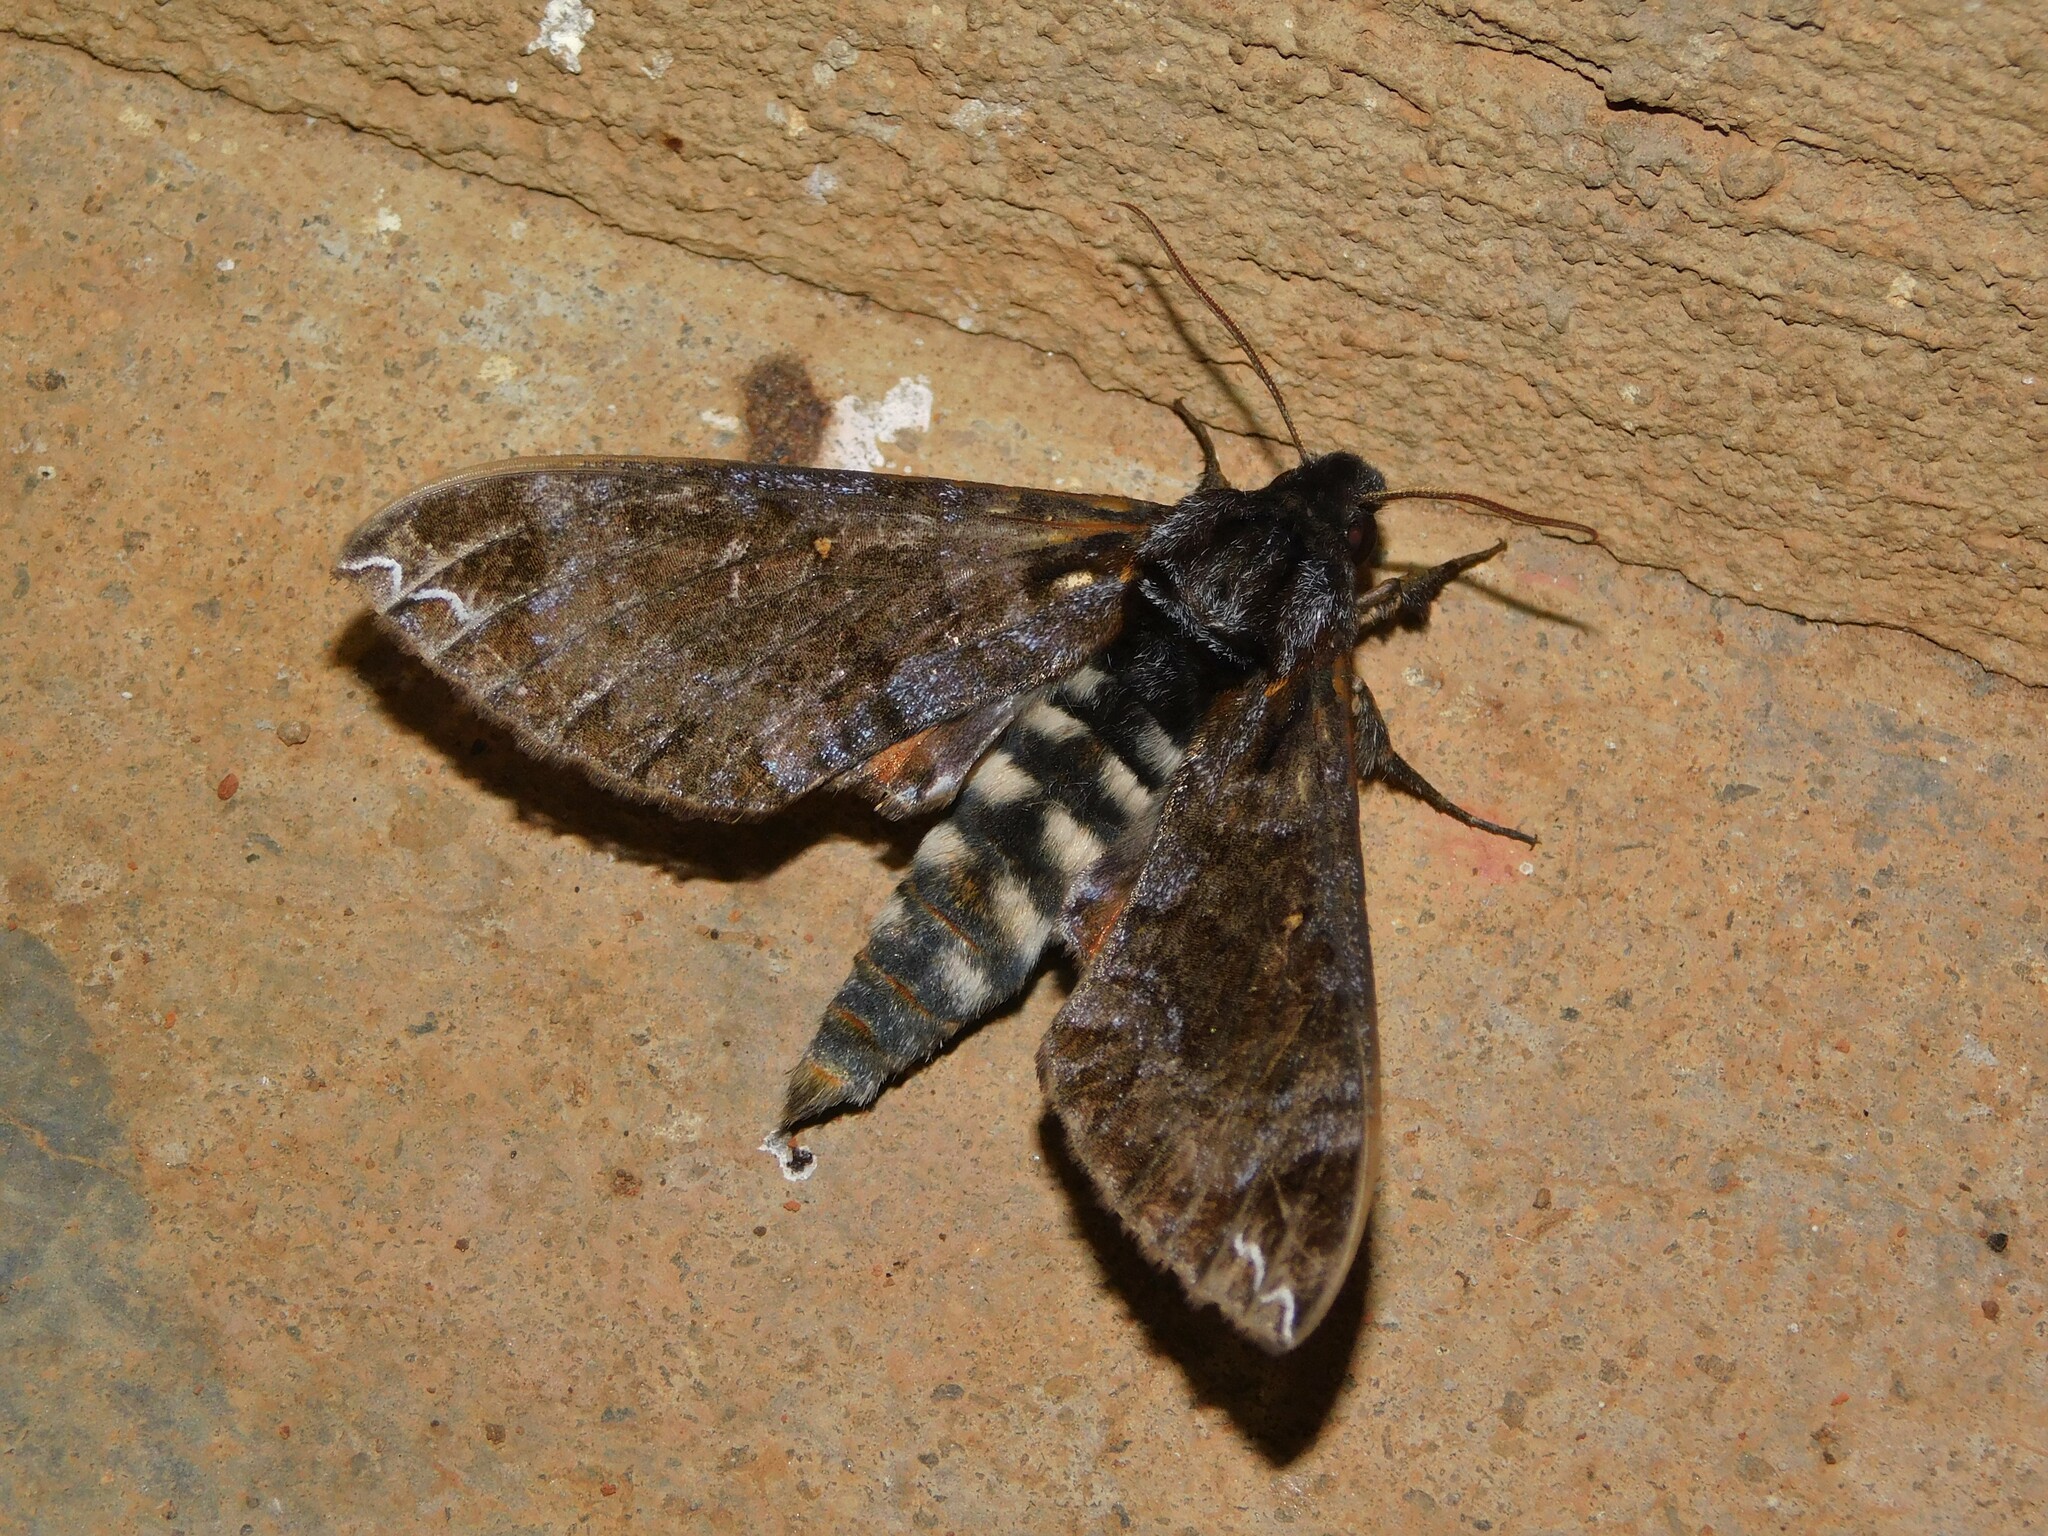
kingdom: Animalia
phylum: Arthropoda
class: Insecta
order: Lepidoptera
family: Sphingidae
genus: Dovania
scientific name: Dovania poecila
